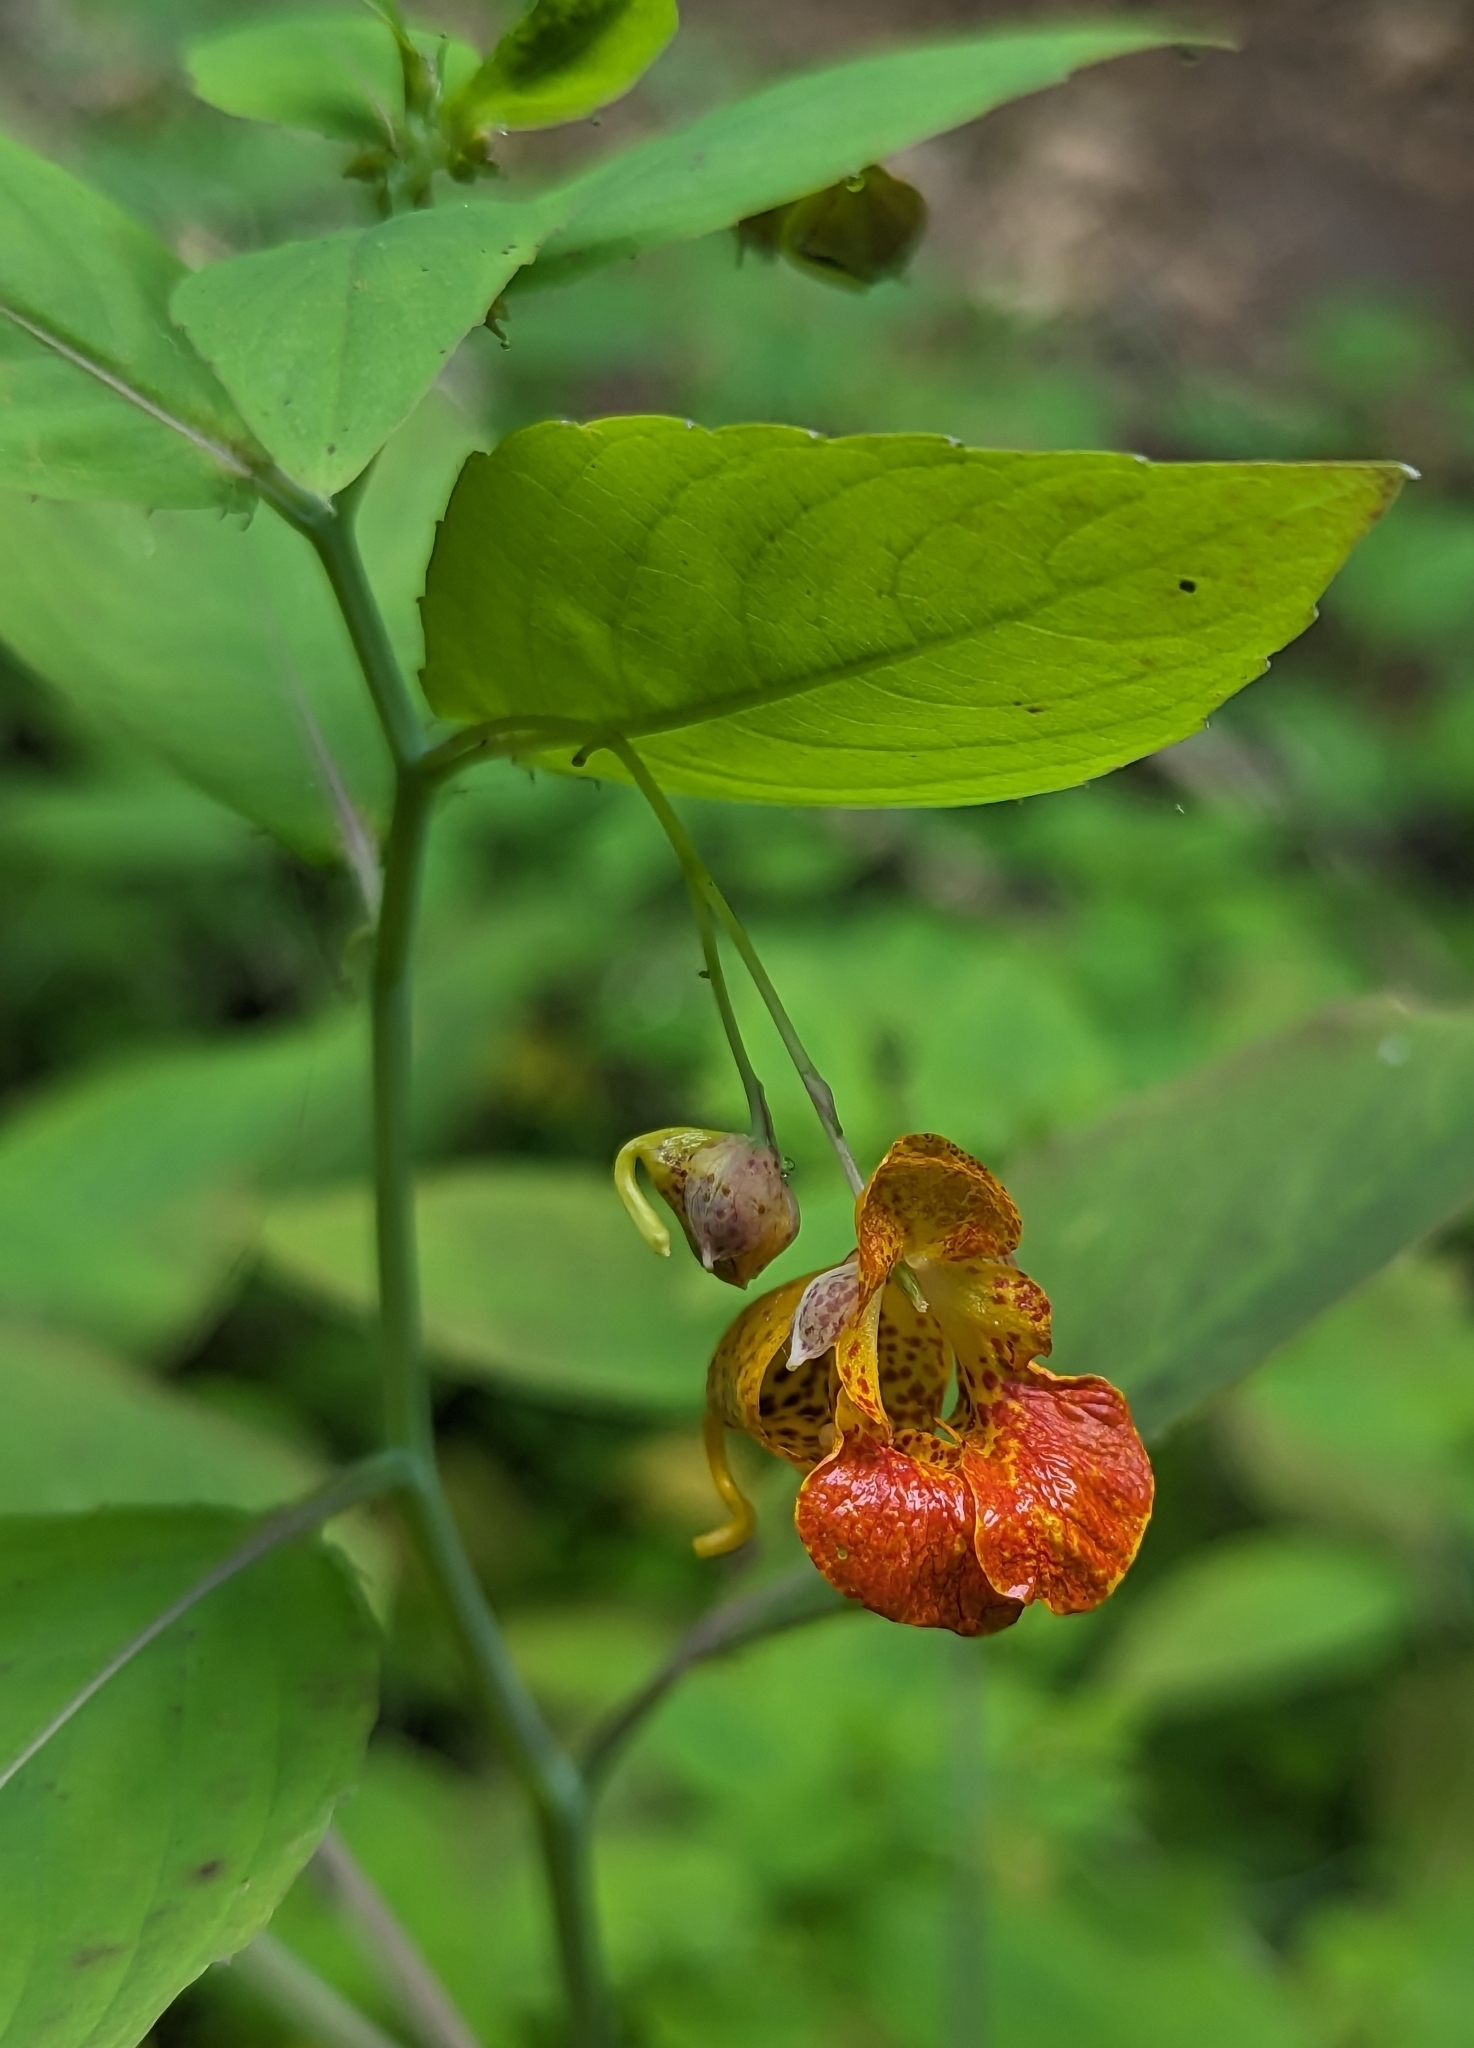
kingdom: Plantae
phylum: Tracheophyta
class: Magnoliopsida
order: Ericales
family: Balsaminaceae
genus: Impatiens
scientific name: Impatiens capensis
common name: Orange balsam
